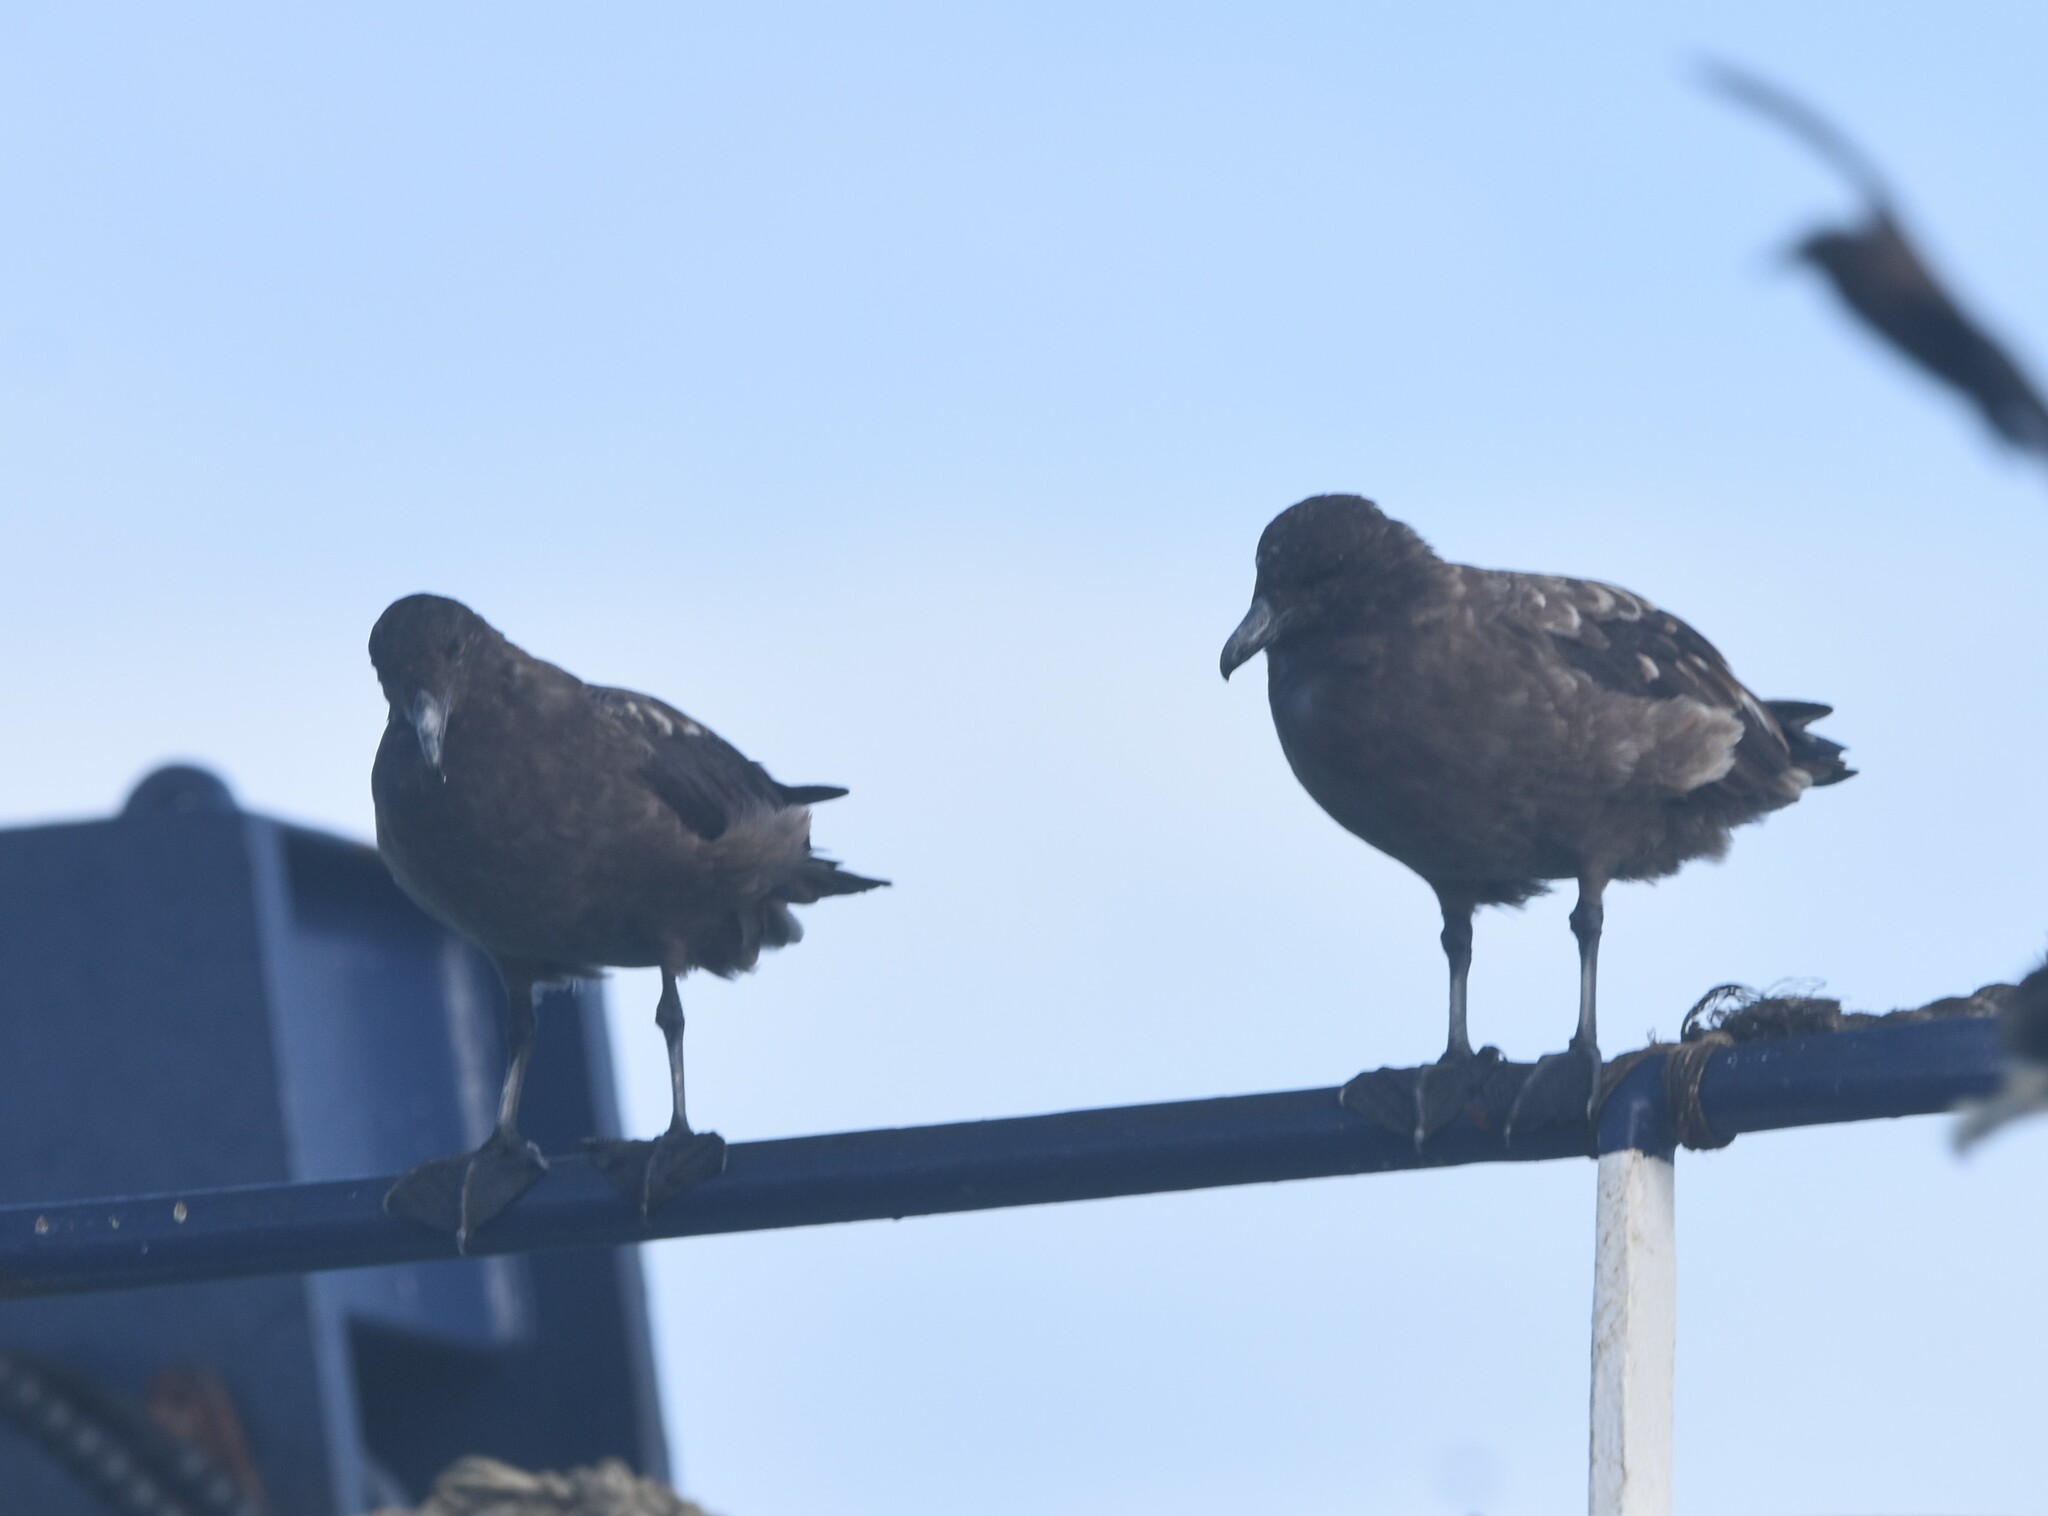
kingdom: Animalia
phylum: Chordata
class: Aves
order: Charadriiformes
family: Stercorariidae
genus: Stercorarius
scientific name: Stercorarius antarcticus
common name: Brown skua
